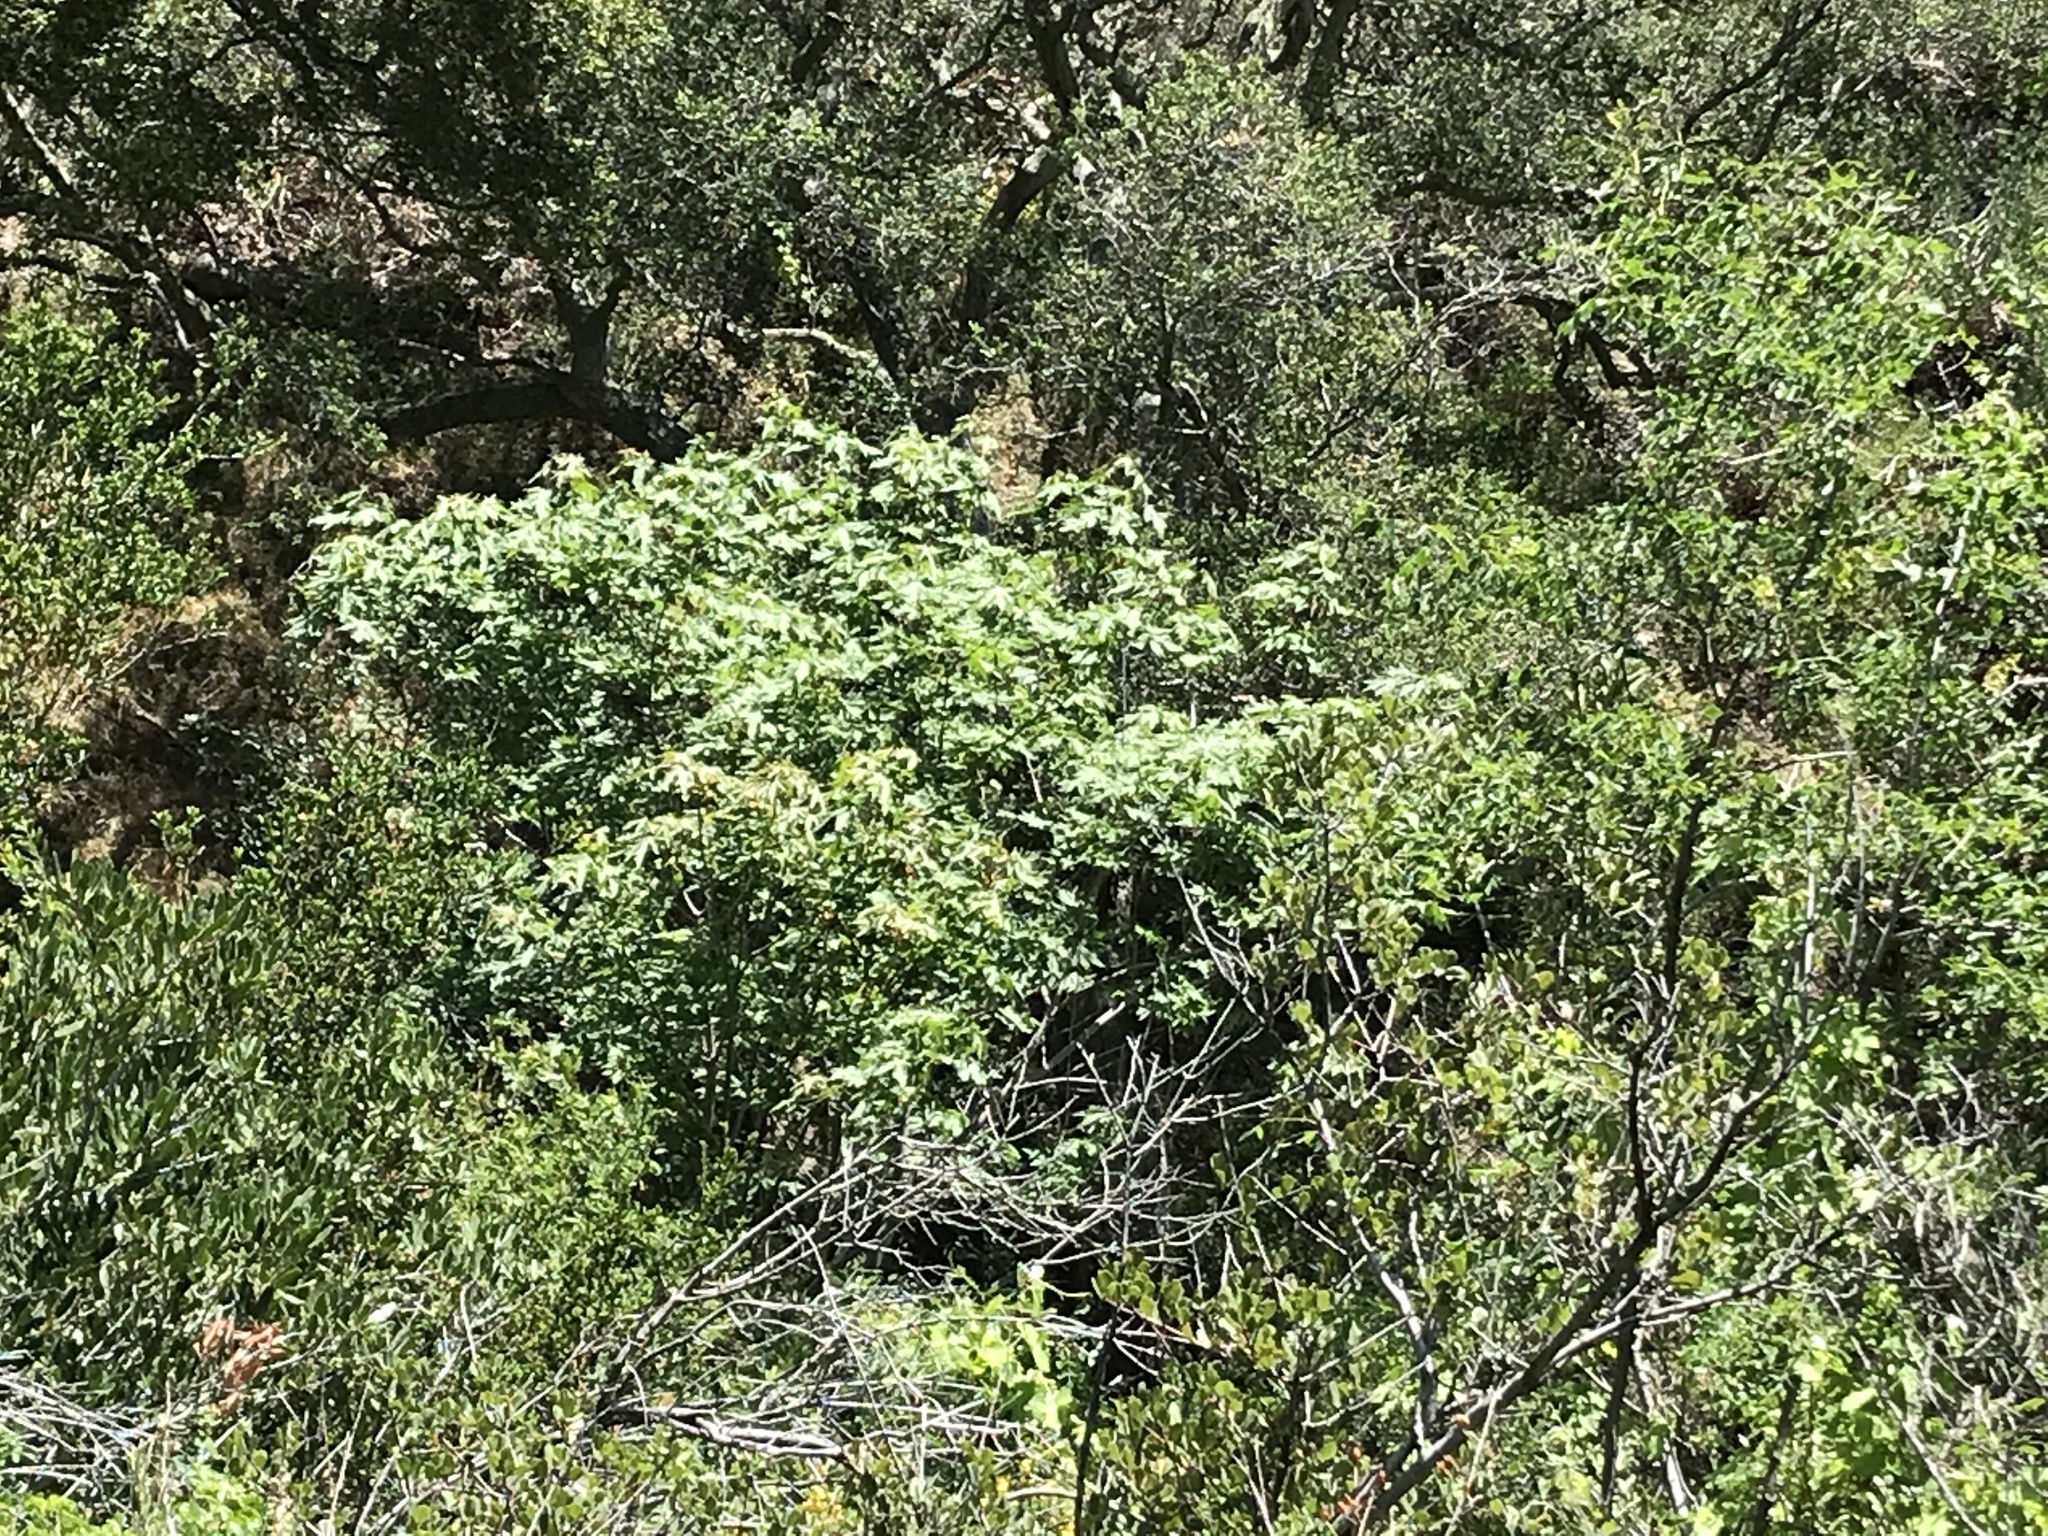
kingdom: Plantae
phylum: Tracheophyta
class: Magnoliopsida
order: Sapindales
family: Sapindaceae
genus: Acer
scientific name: Acer macrophyllum
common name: Oregon maple
